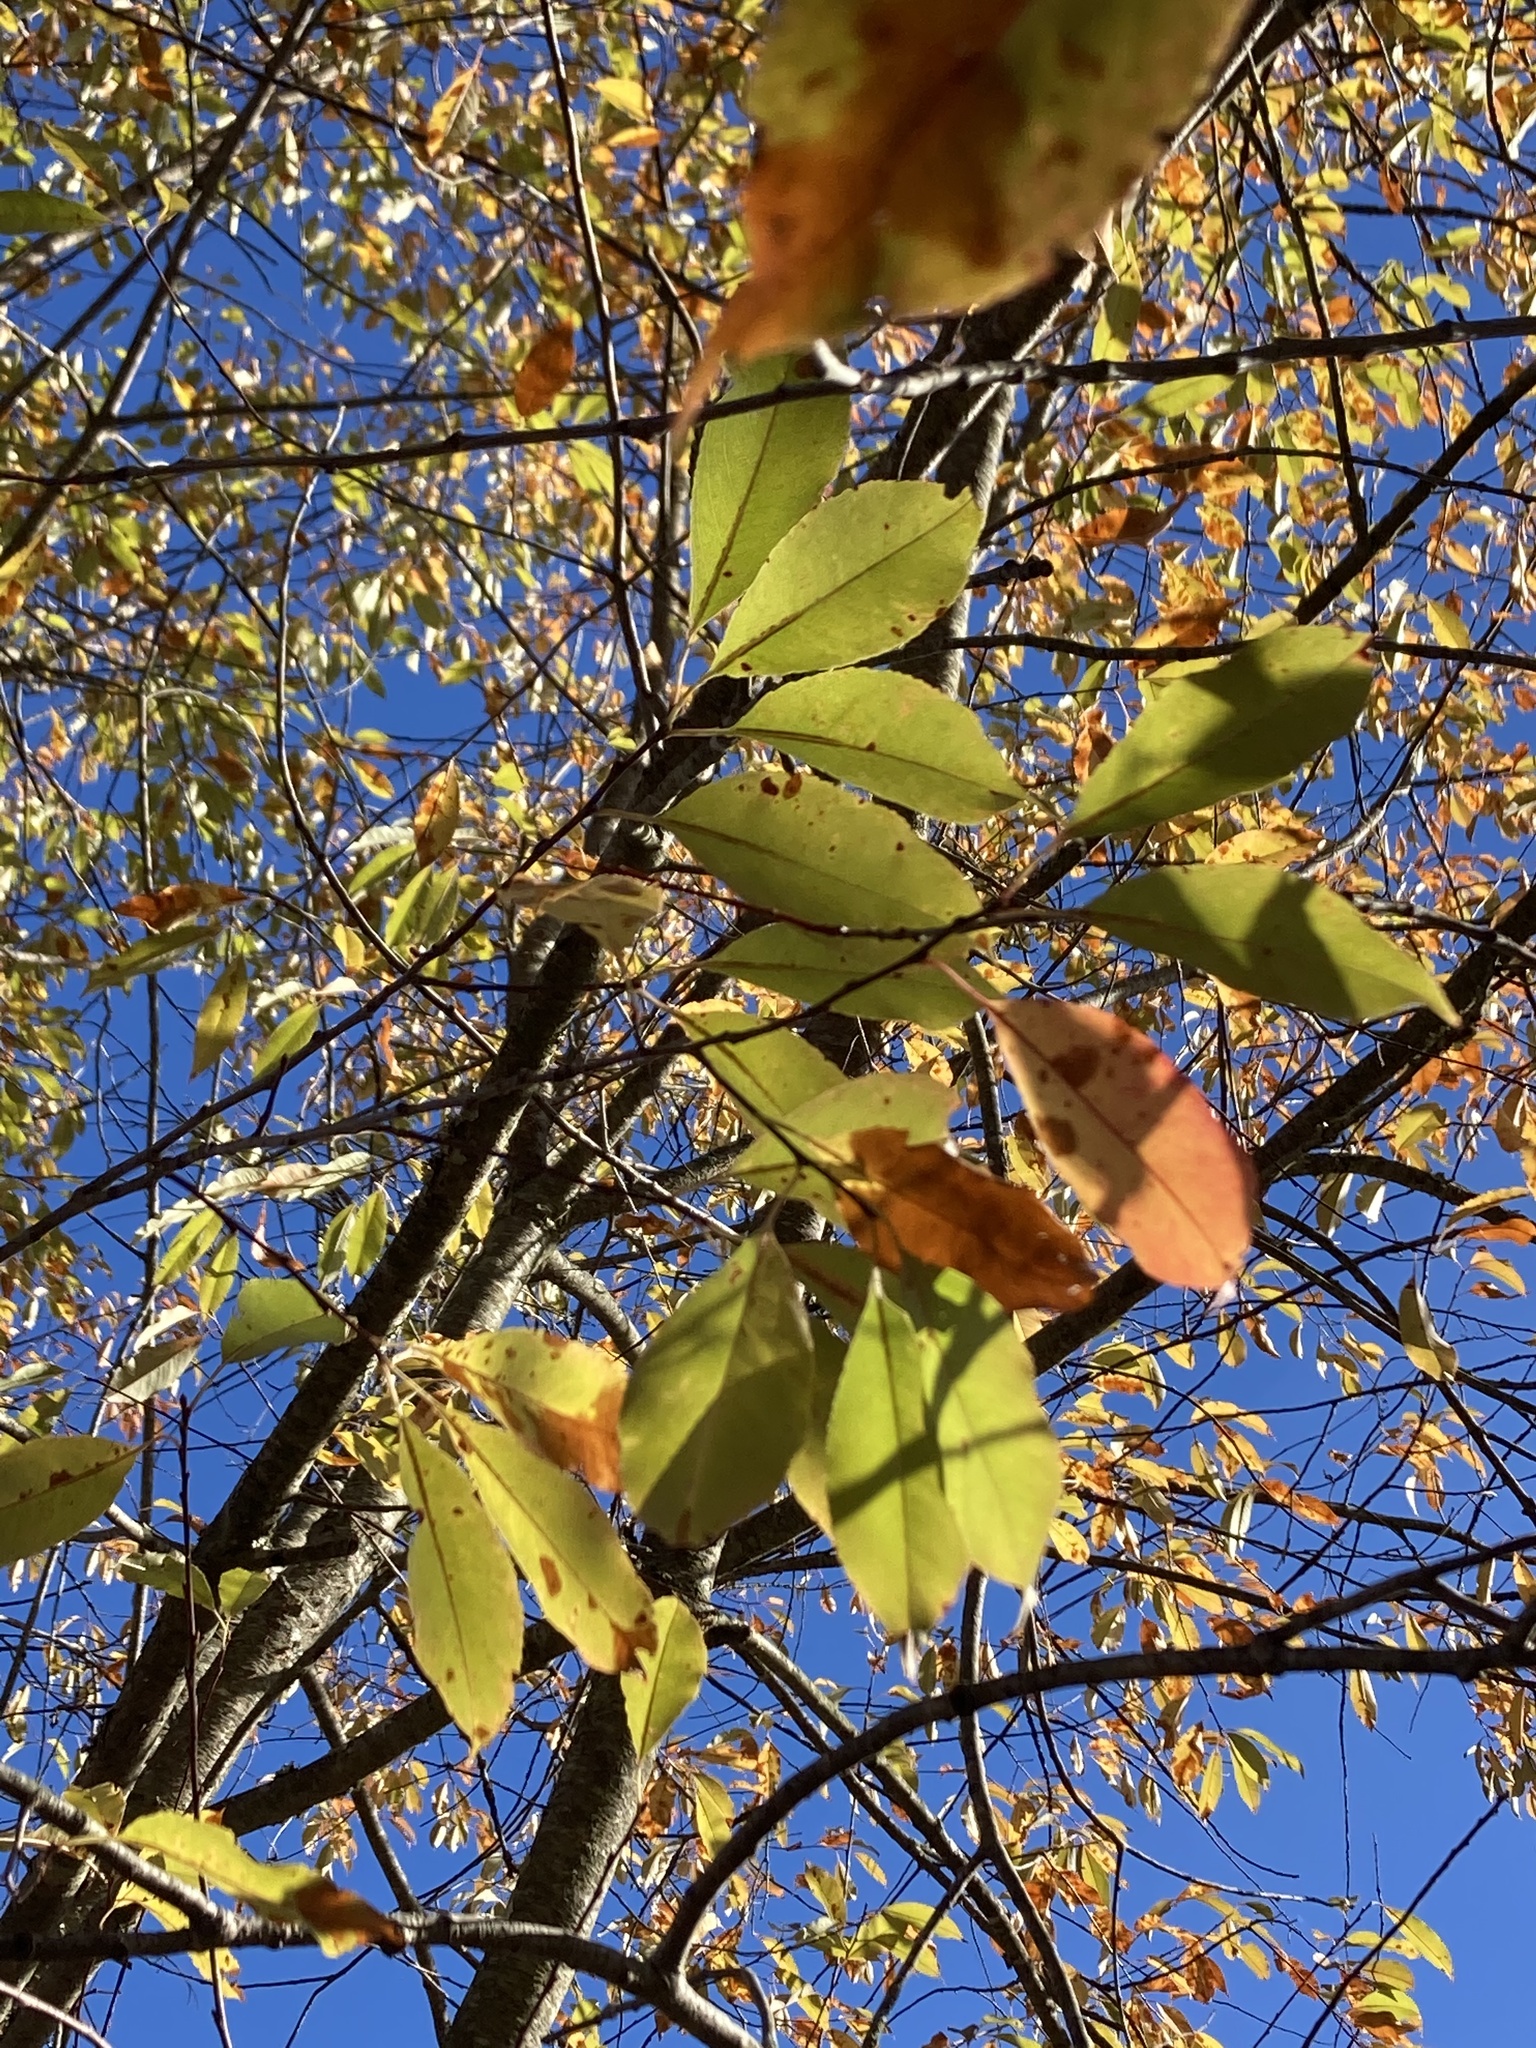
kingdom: Plantae
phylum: Tracheophyta
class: Magnoliopsida
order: Rosales
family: Rosaceae
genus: Prunus
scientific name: Prunus serotina
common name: Black cherry
